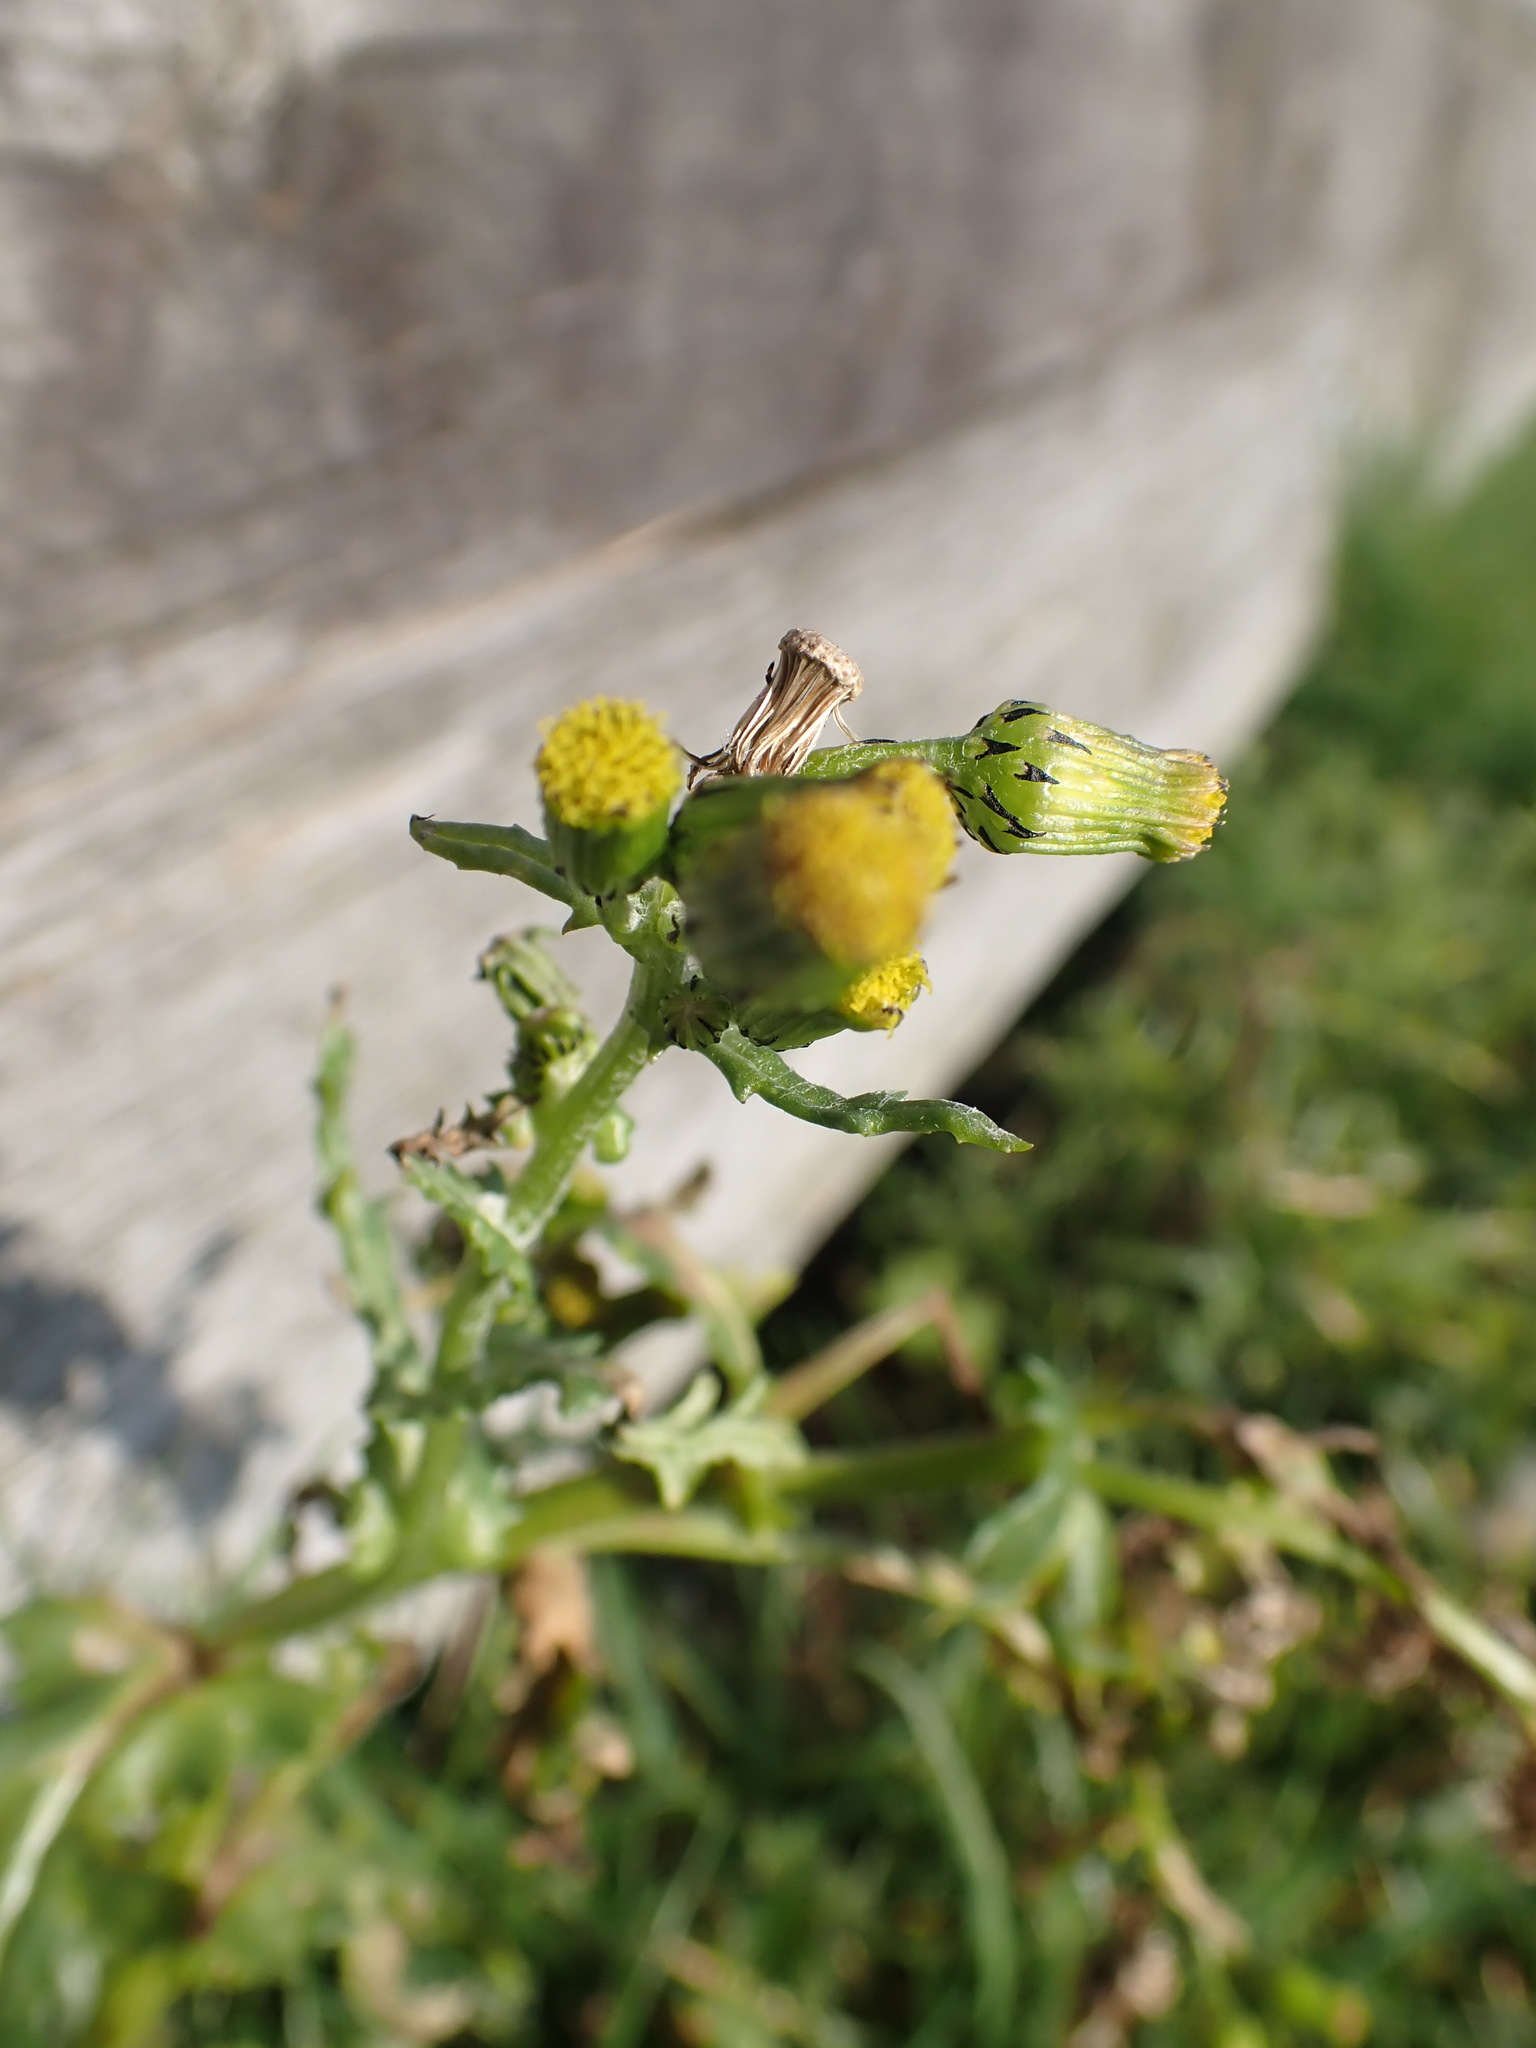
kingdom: Plantae
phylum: Tracheophyta
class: Magnoliopsida
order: Asterales
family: Asteraceae
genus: Senecio
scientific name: Senecio vulgaris
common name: Old-man-in-the-spring
